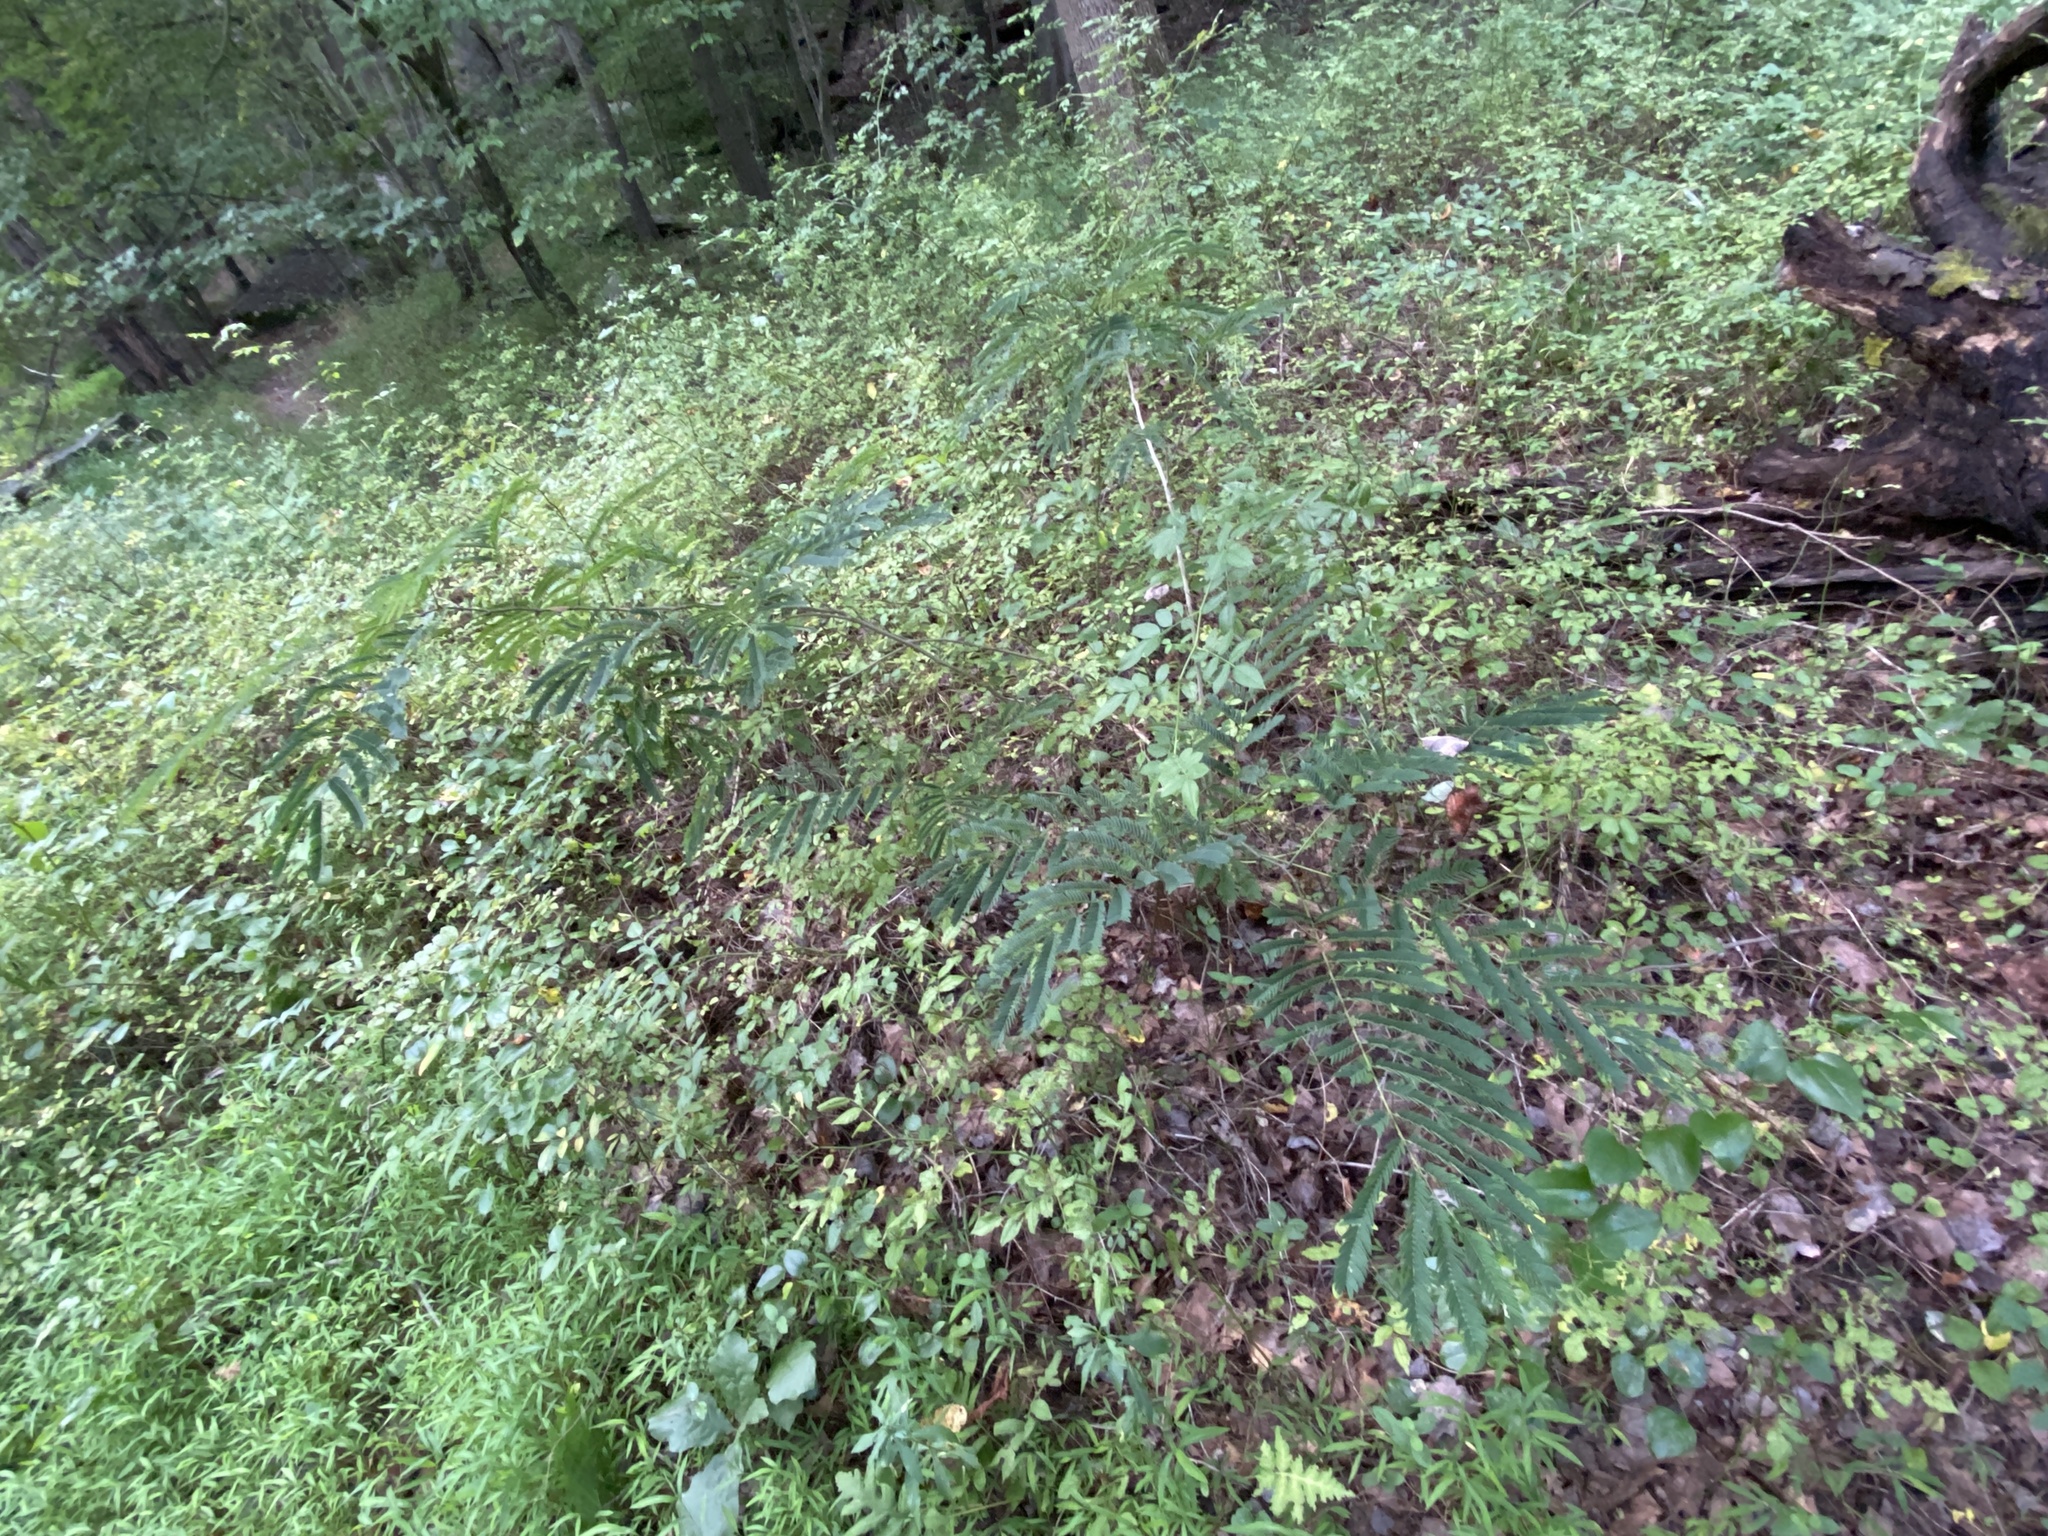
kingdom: Plantae
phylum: Tracheophyta
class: Magnoliopsida
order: Fabales
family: Fabaceae
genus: Albizia
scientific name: Albizia julibrissin
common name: Silktree
